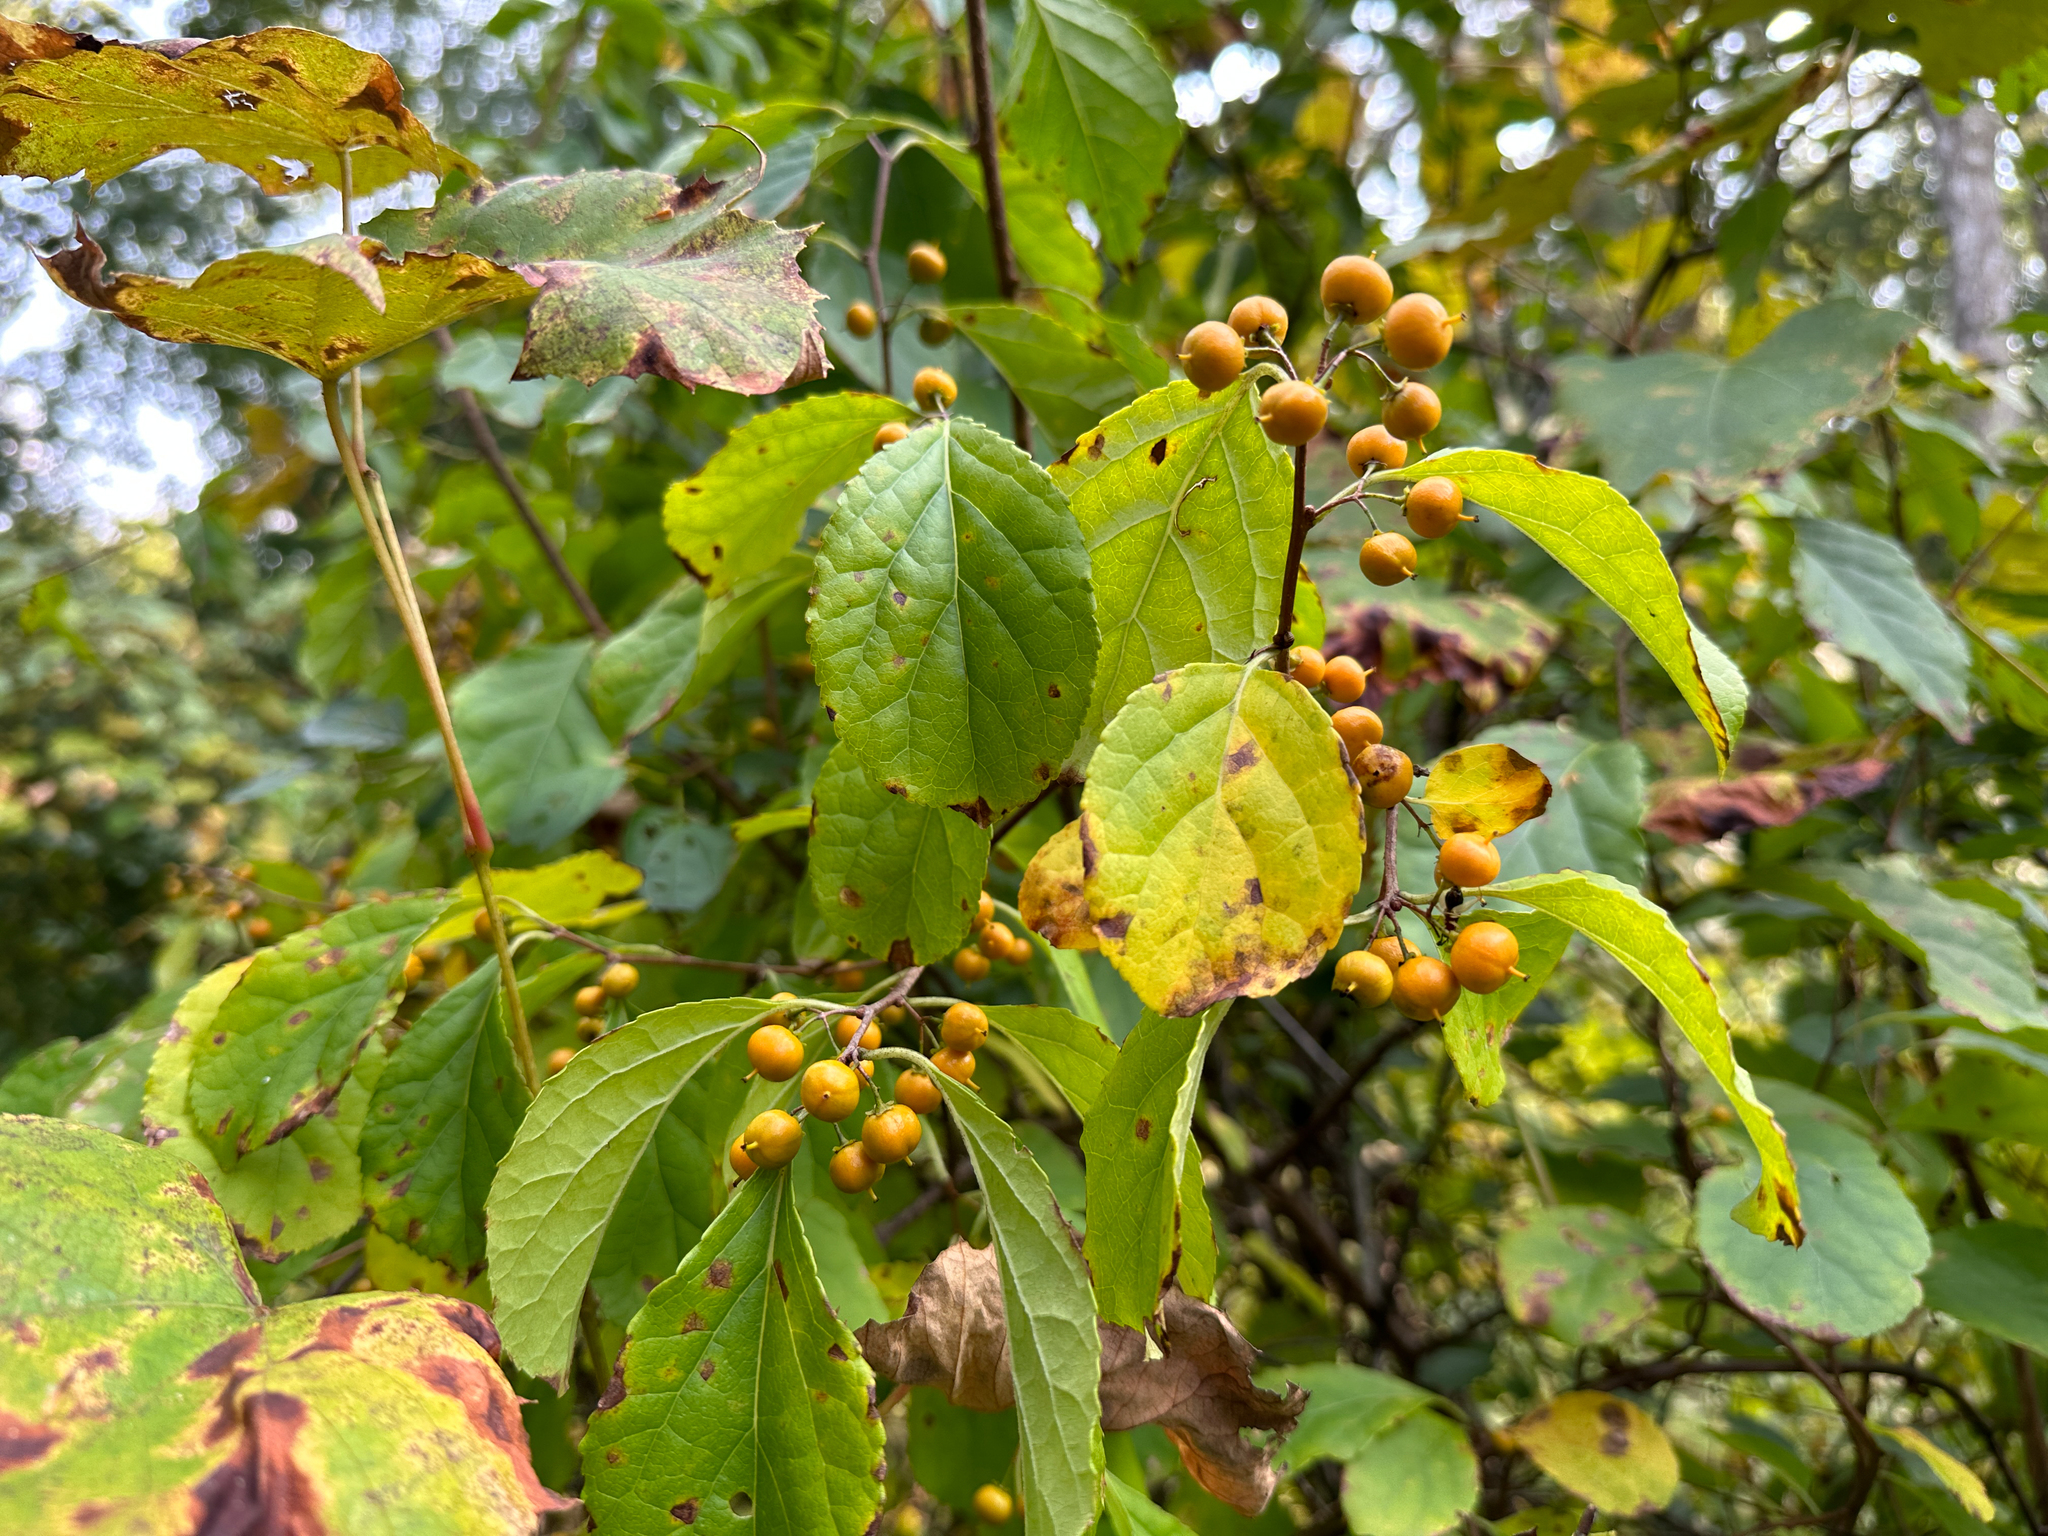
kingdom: Plantae
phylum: Tracheophyta
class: Magnoliopsida
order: Celastrales
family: Celastraceae
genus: Celastrus
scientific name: Celastrus orbiculatus
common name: Oriental bittersweet
